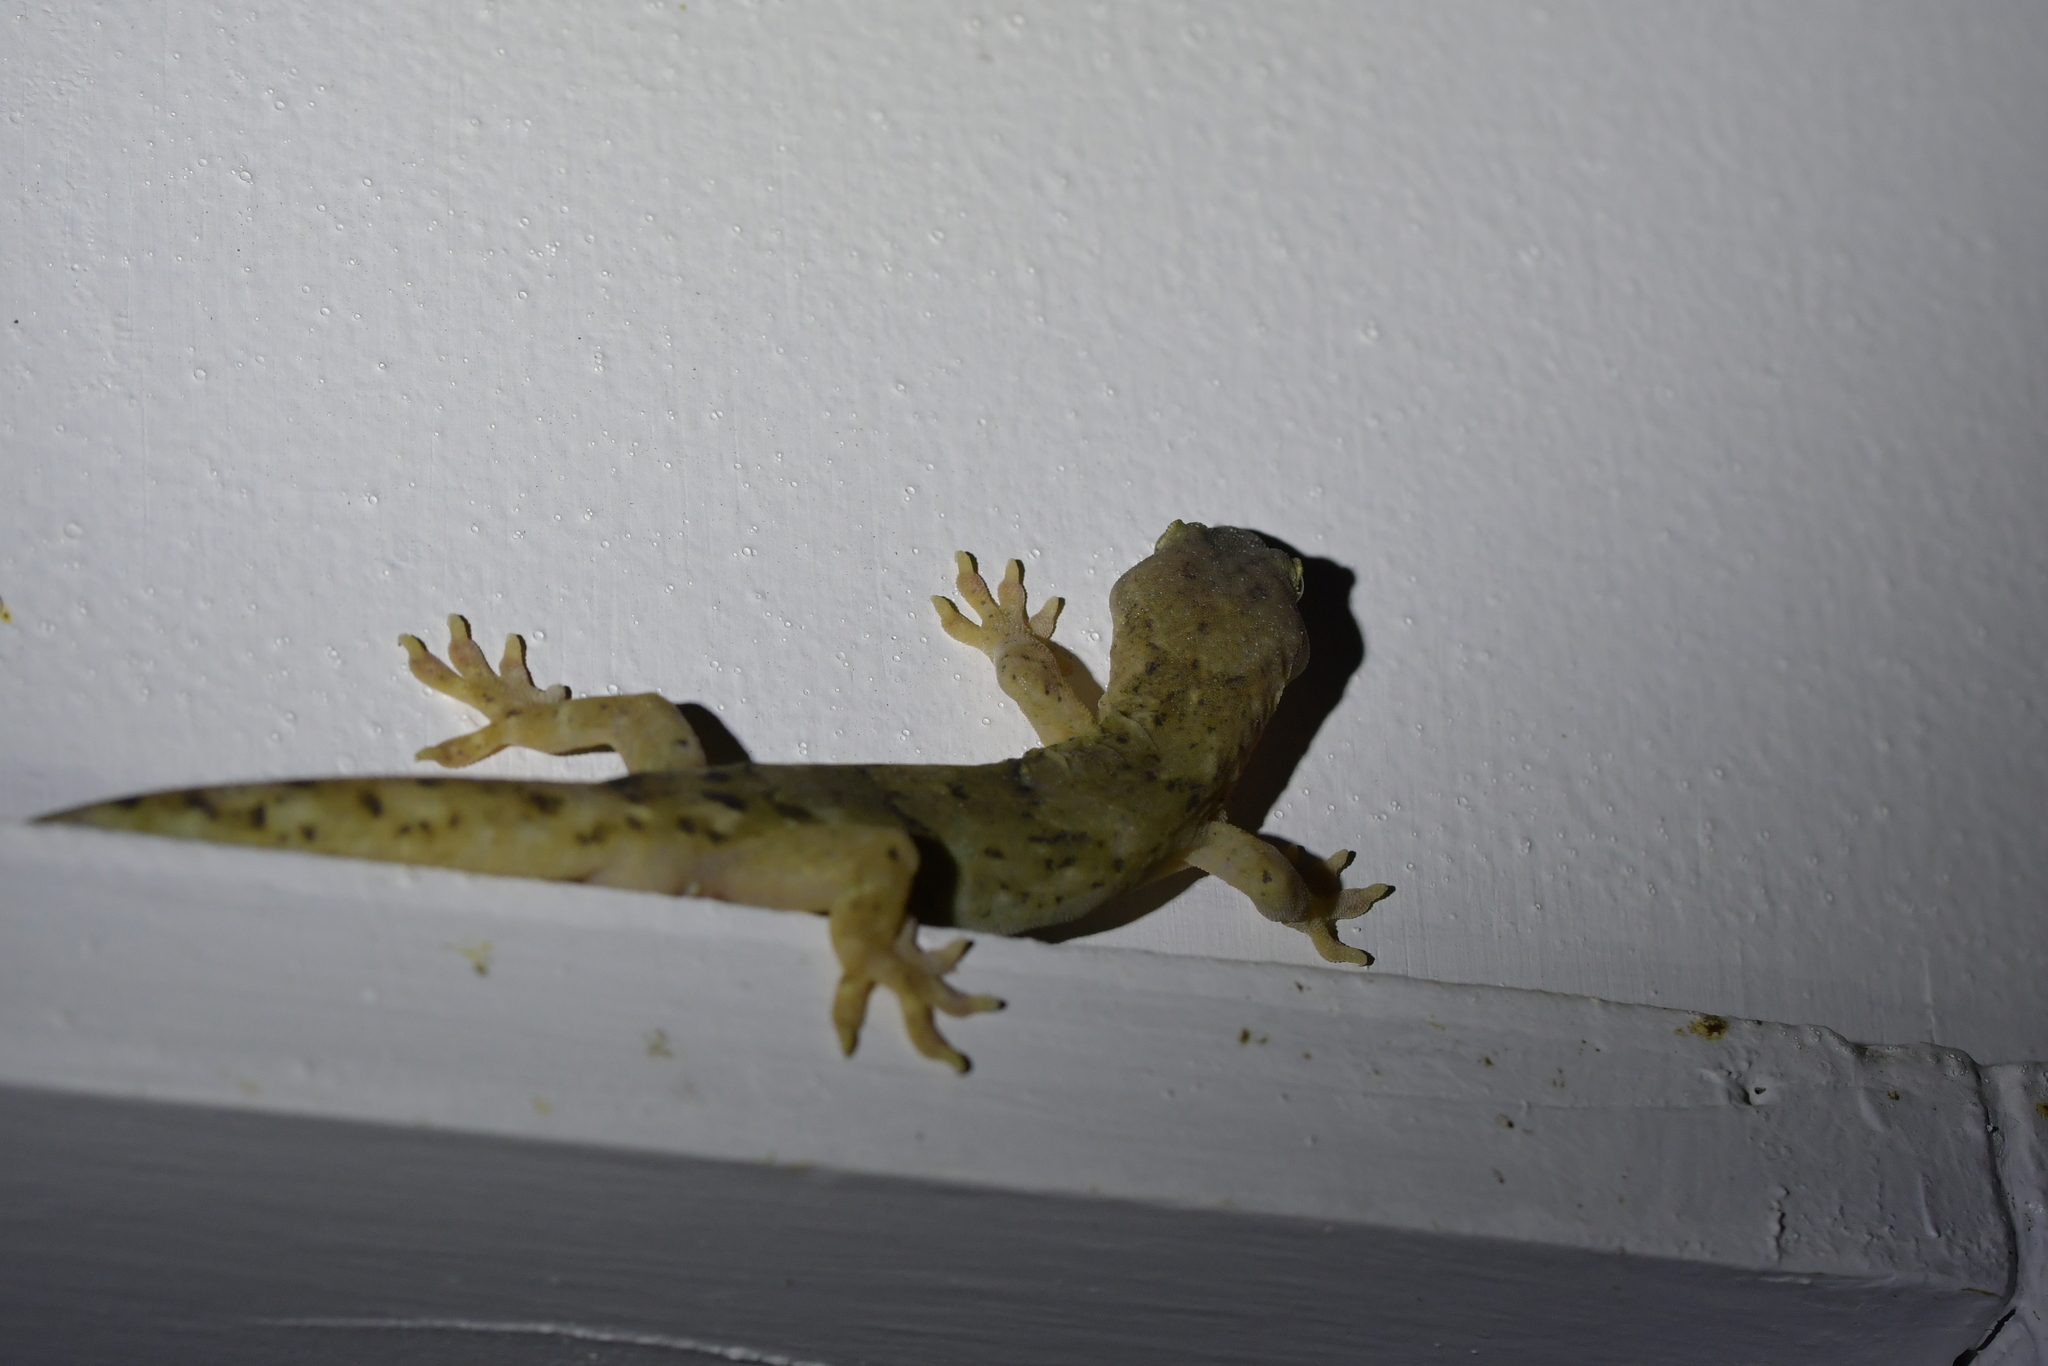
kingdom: Animalia
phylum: Chordata
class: Squamata
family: Diplodactylidae
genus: Woodworthia
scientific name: Woodworthia maculata
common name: Raukawa gecko
